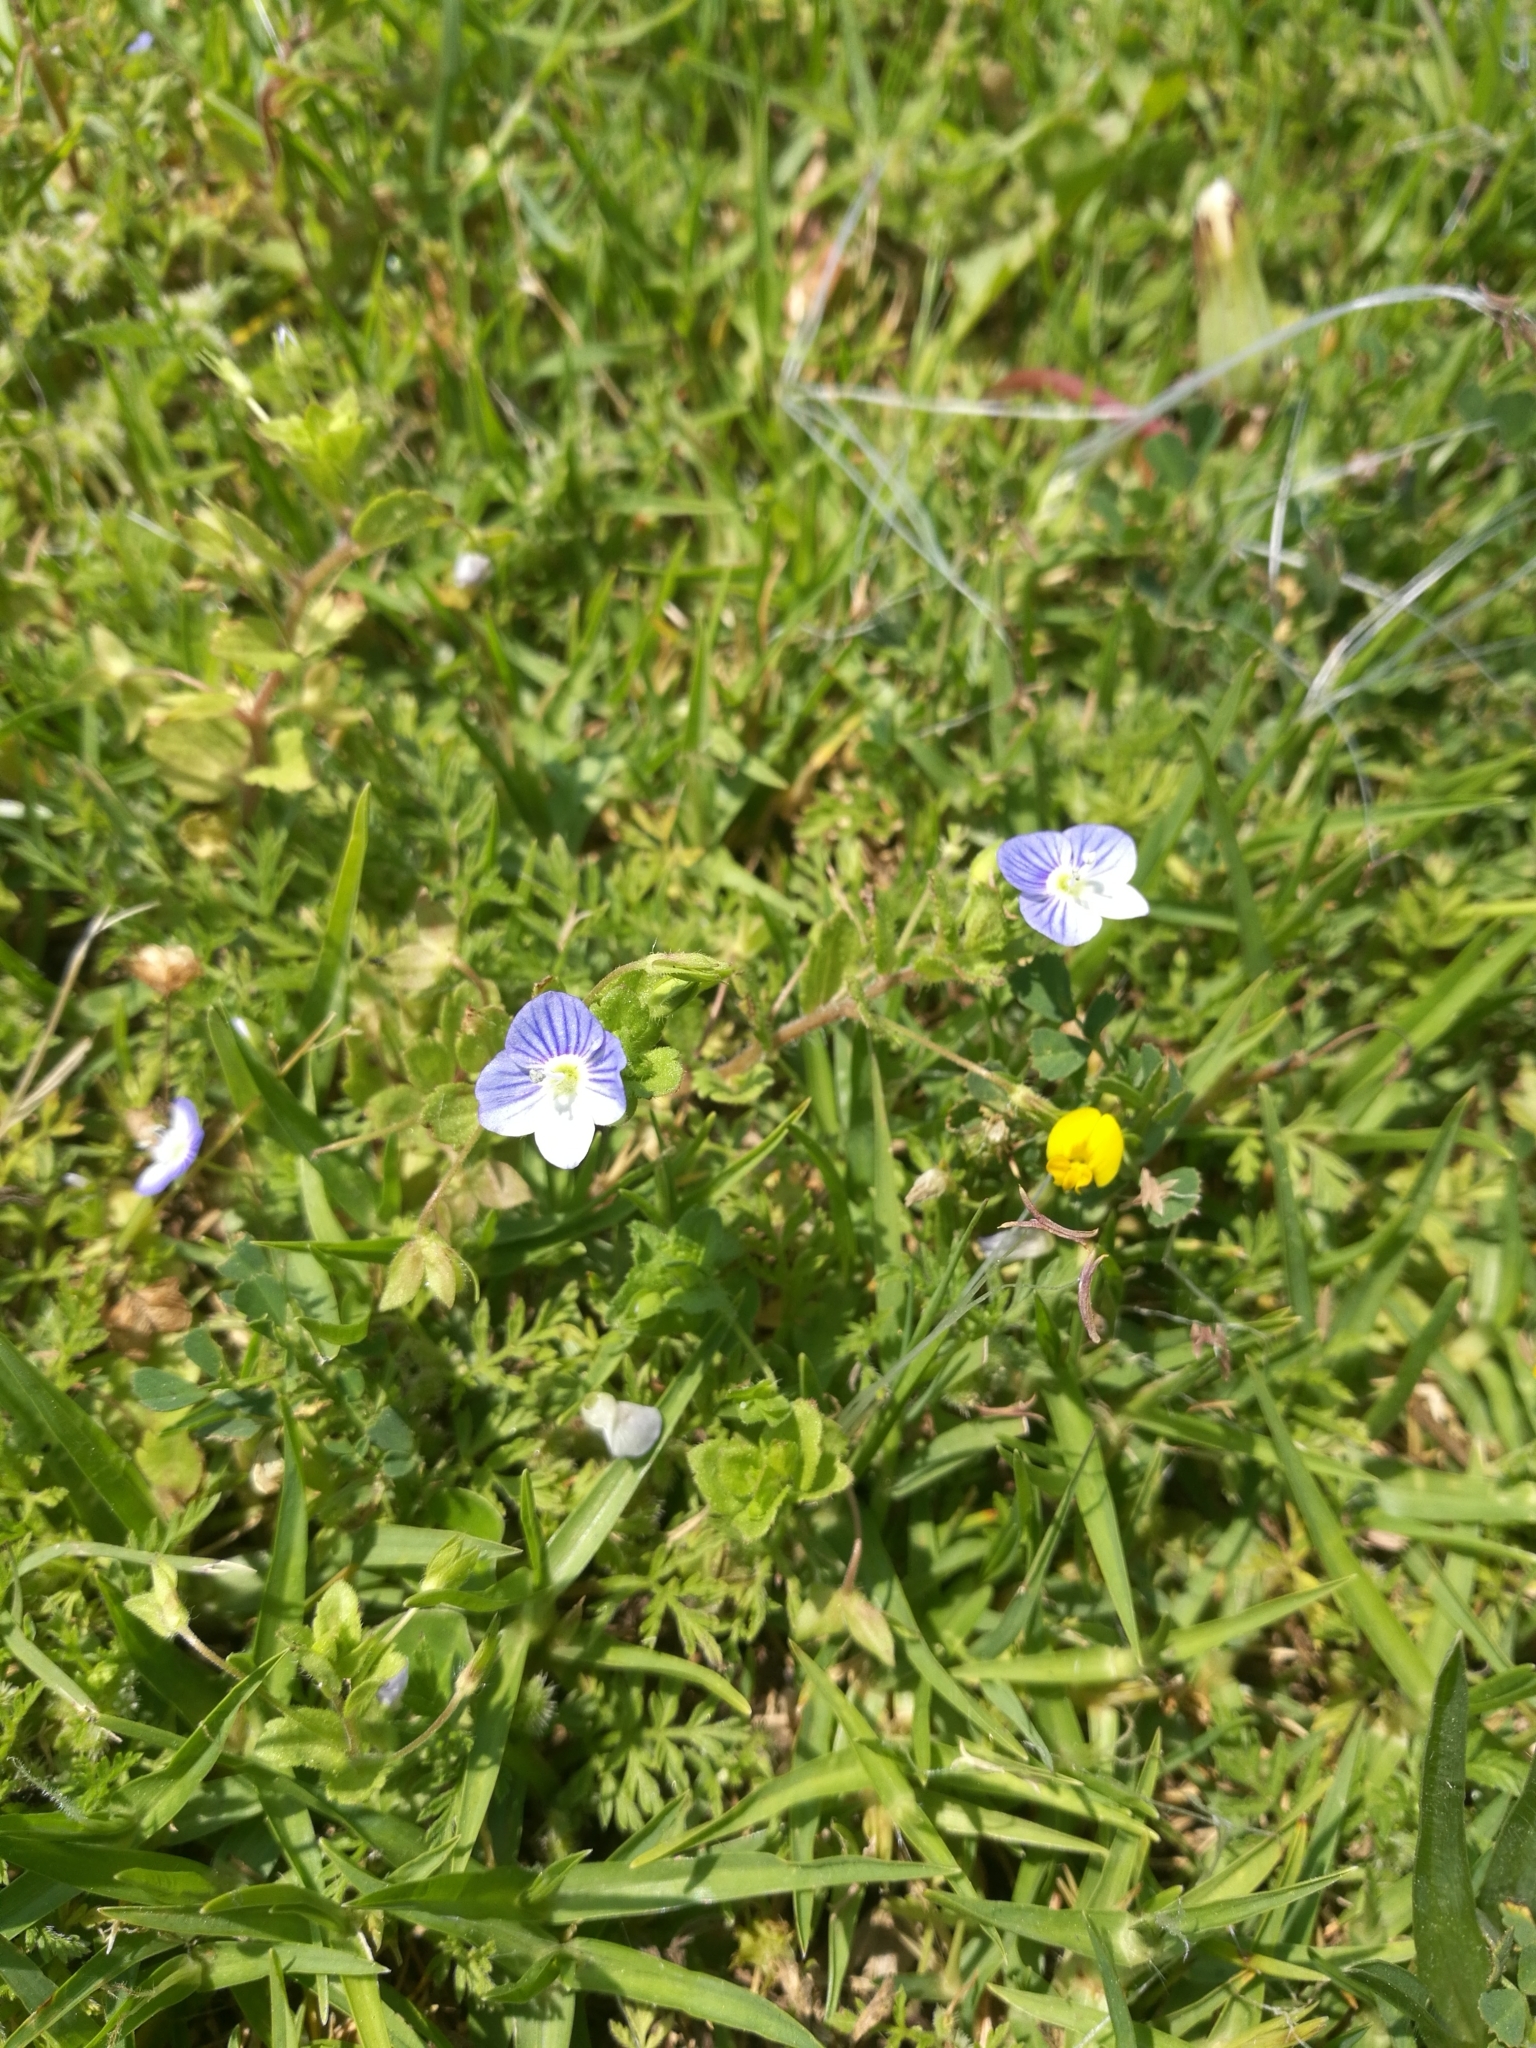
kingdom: Plantae
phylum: Tracheophyta
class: Magnoliopsida
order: Lamiales
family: Plantaginaceae
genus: Veronica
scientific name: Veronica persica
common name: Common field-speedwell
